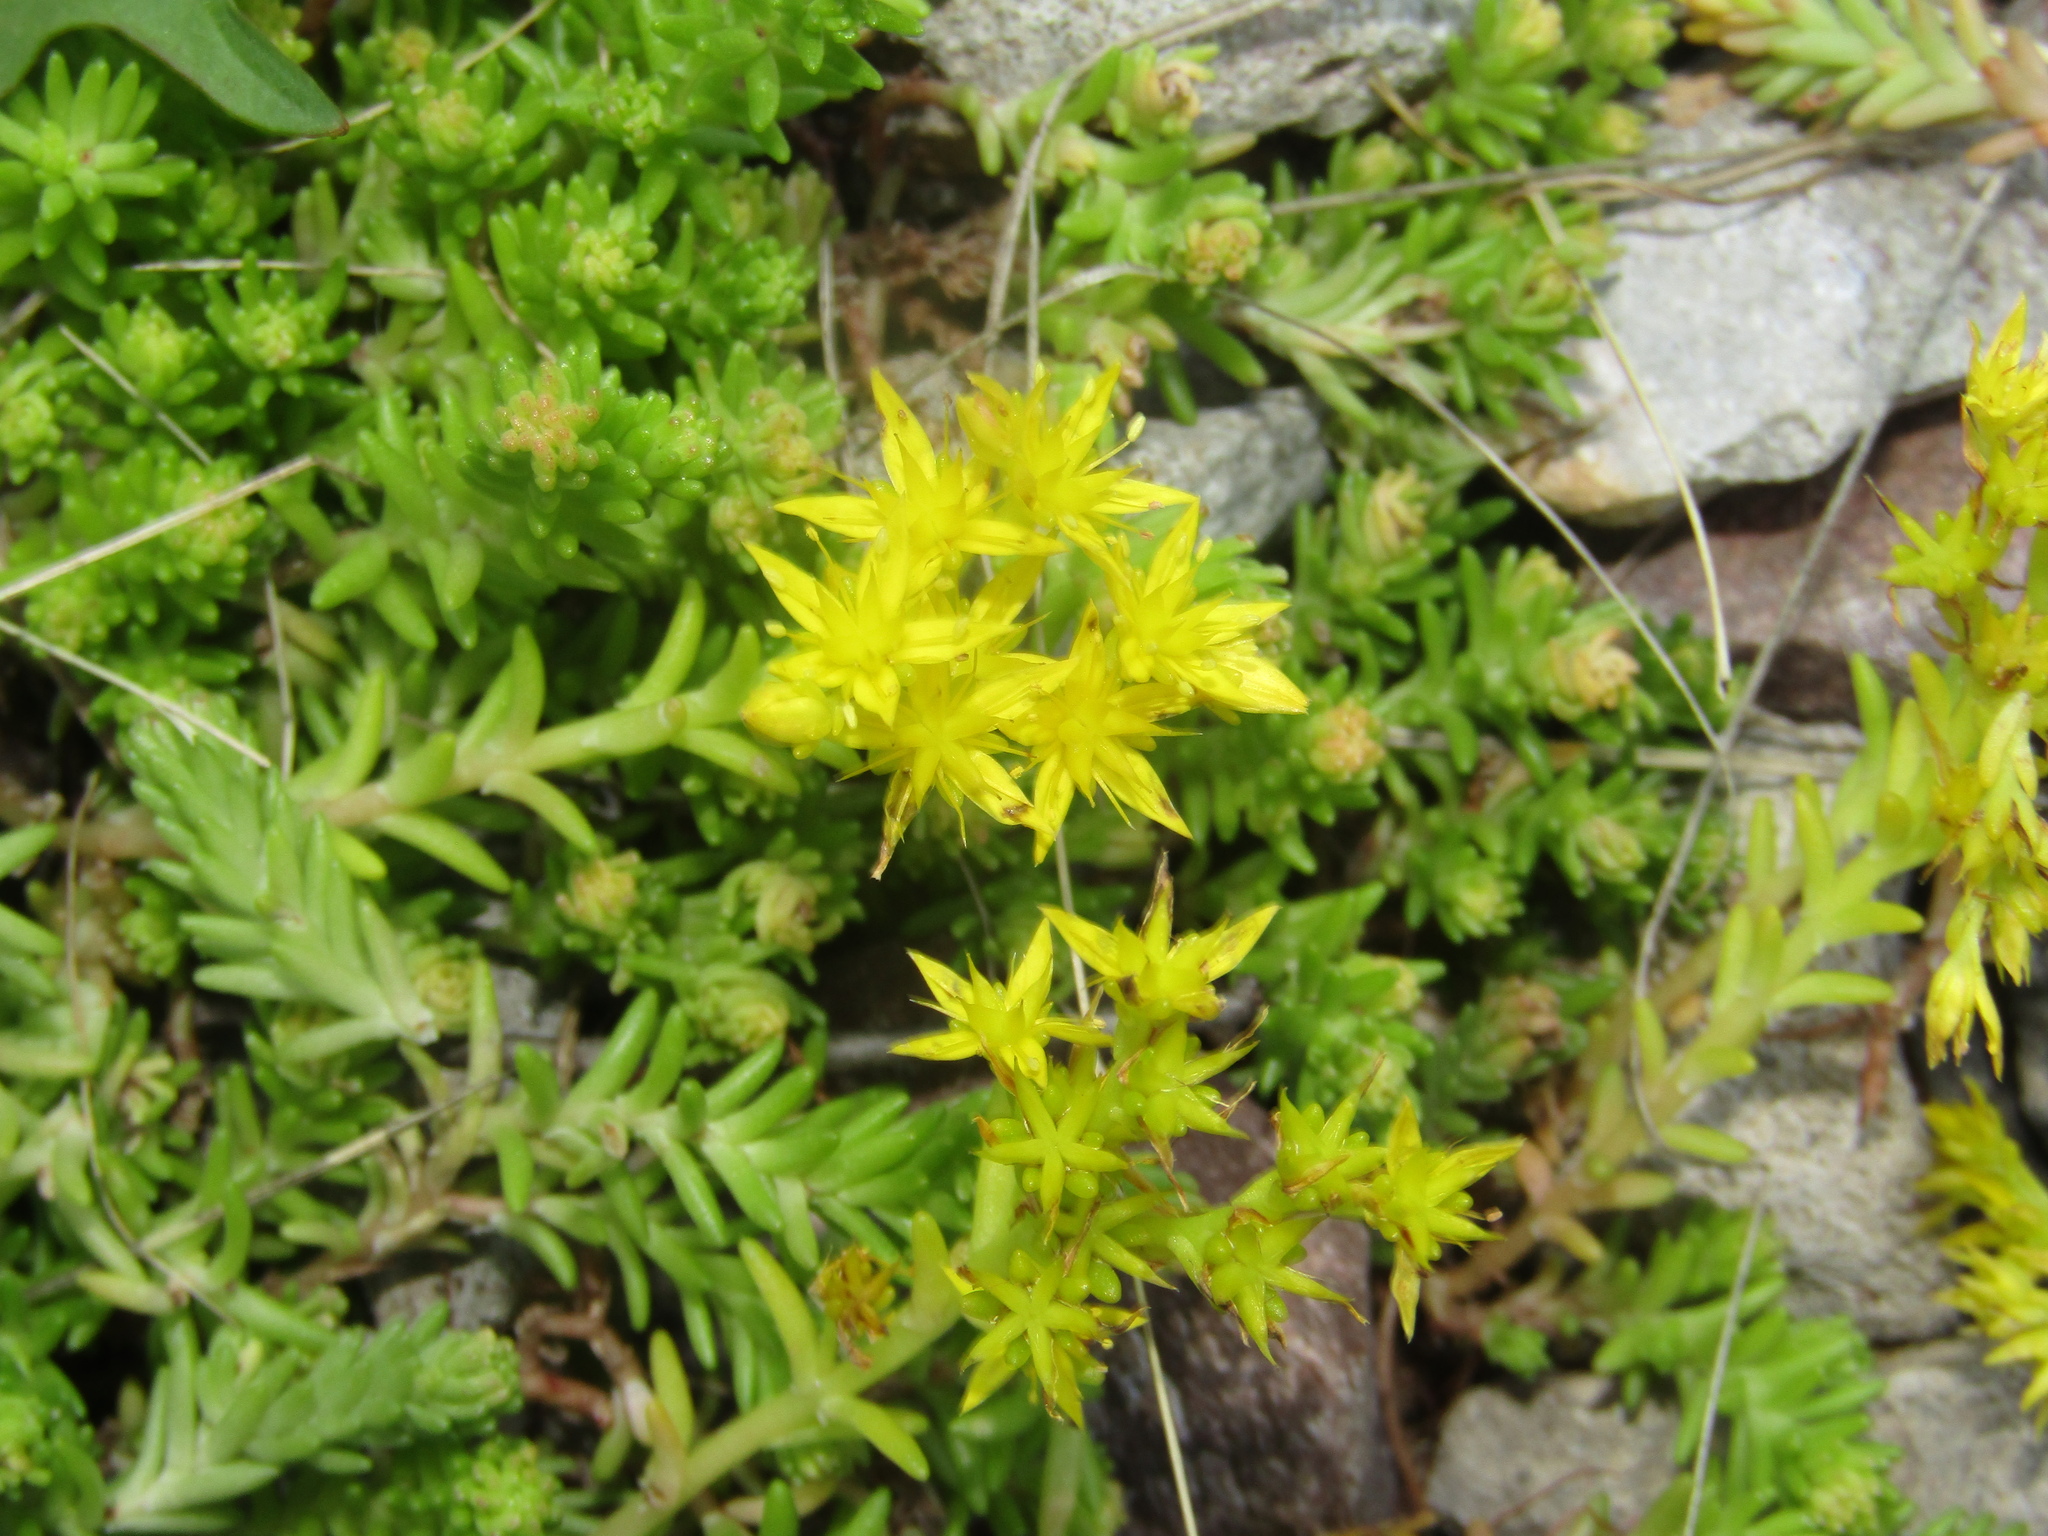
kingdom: Plantae
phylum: Tracheophyta
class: Magnoliopsida
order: Saxifragales
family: Crassulaceae
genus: Sedum
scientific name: Sedum sexangulare
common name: Tasteless stonecrop
